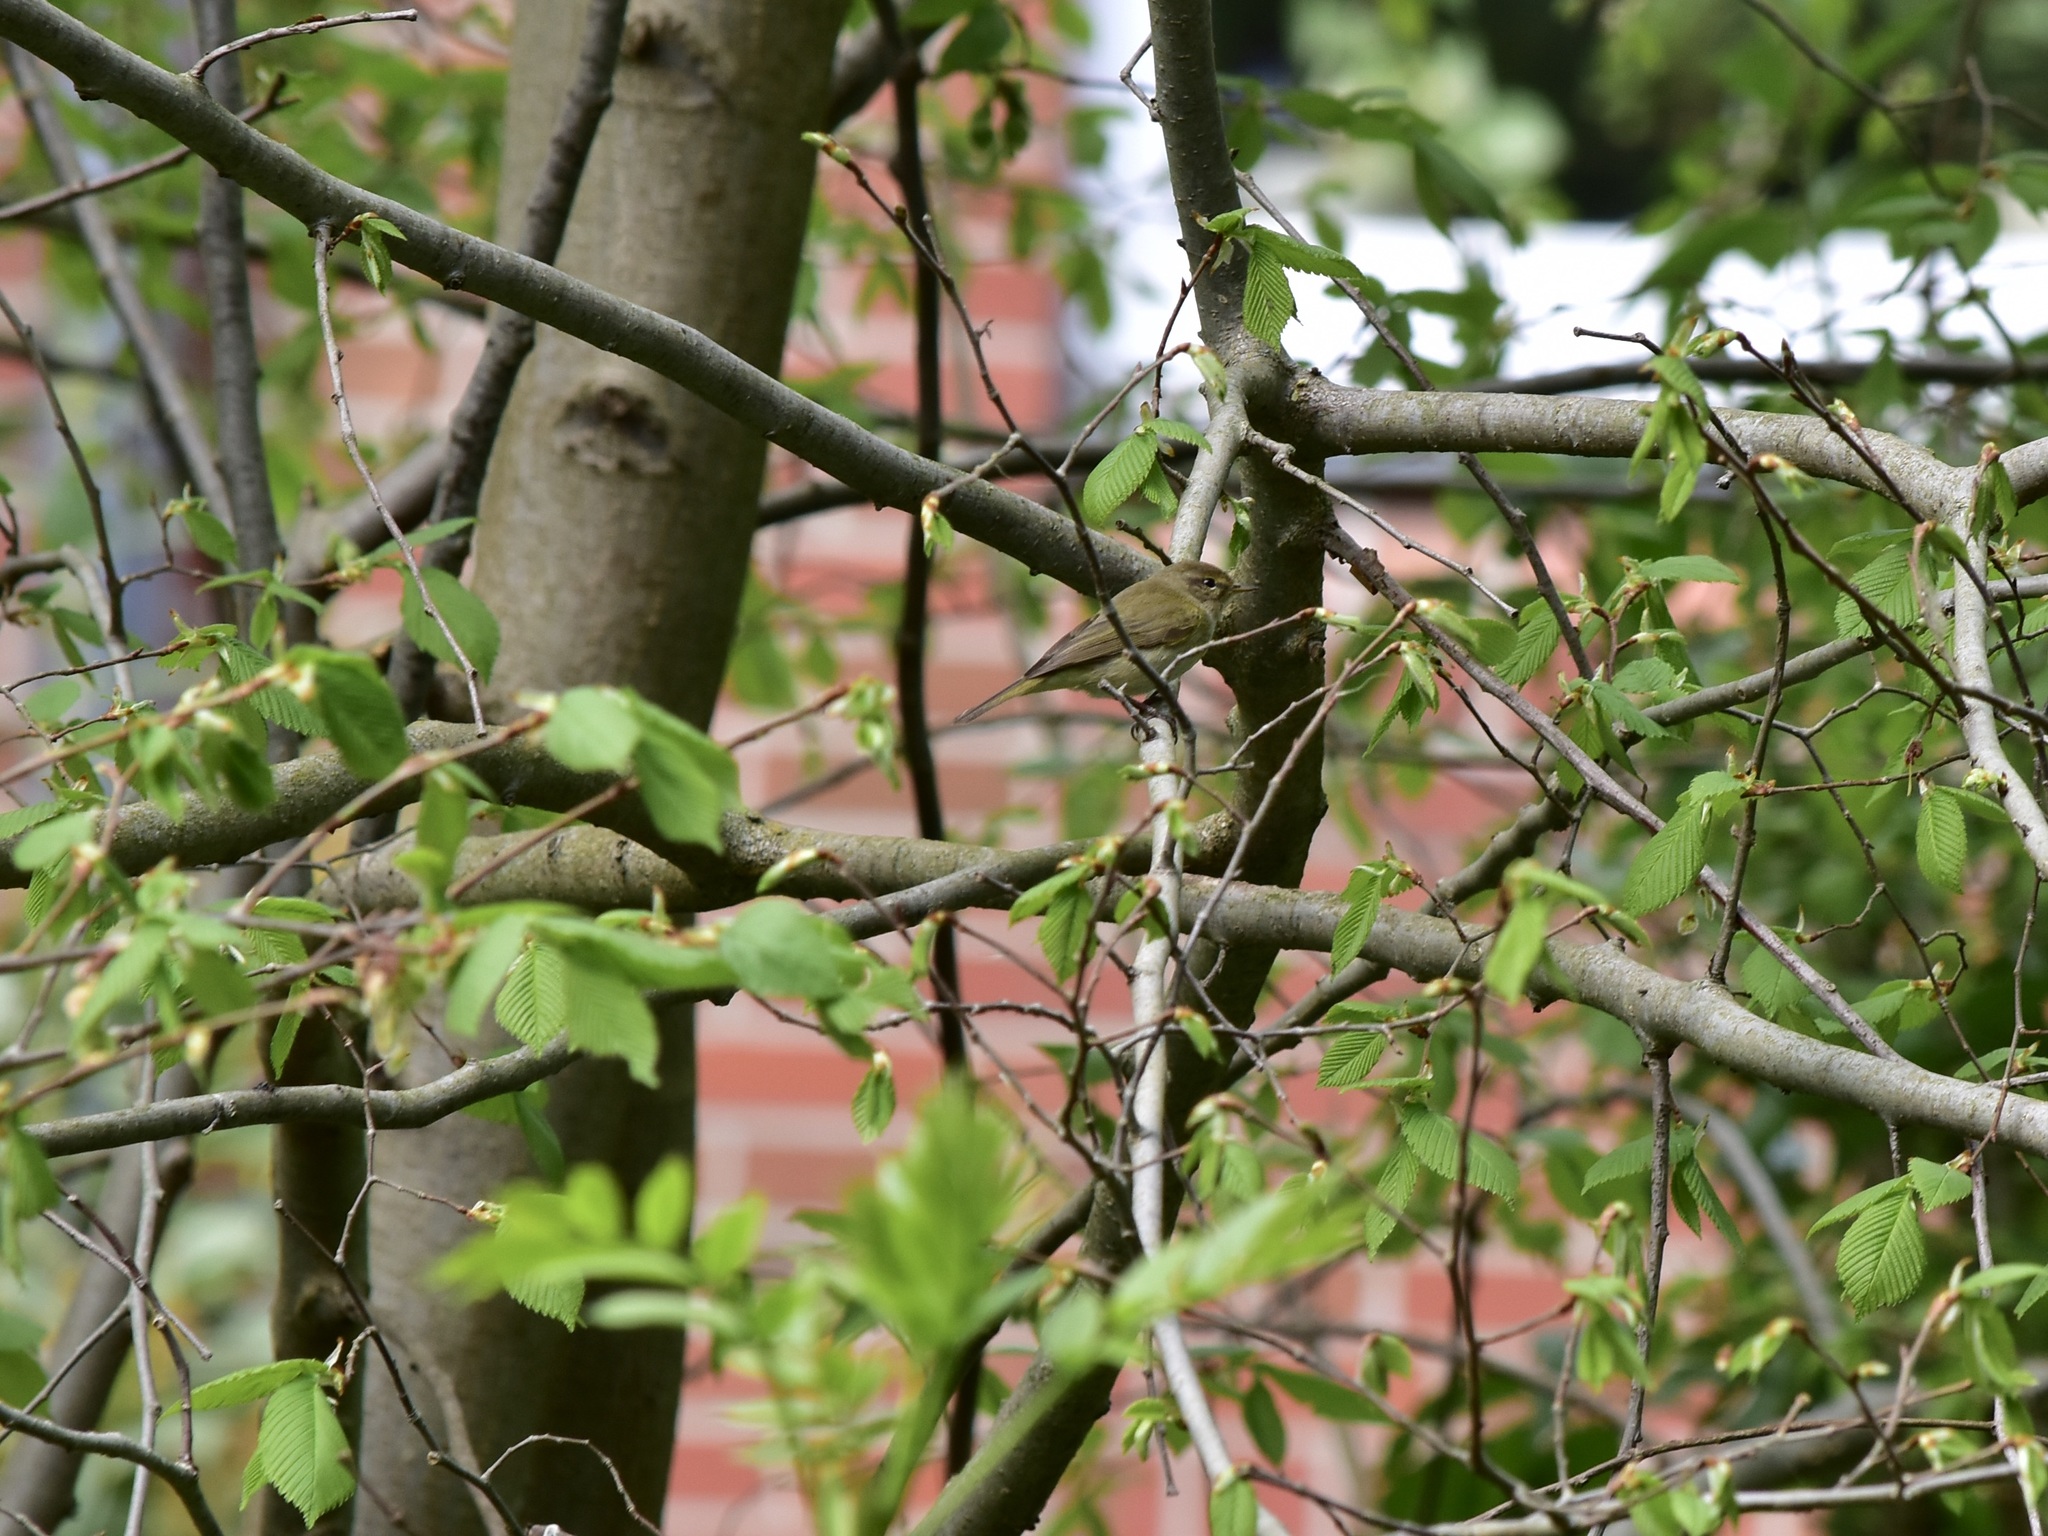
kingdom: Animalia
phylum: Chordata
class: Aves
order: Passeriformes
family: Phylloscopidae
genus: Phylloscopus
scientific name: Phylloscopus collybita
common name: Common chiffchaff
